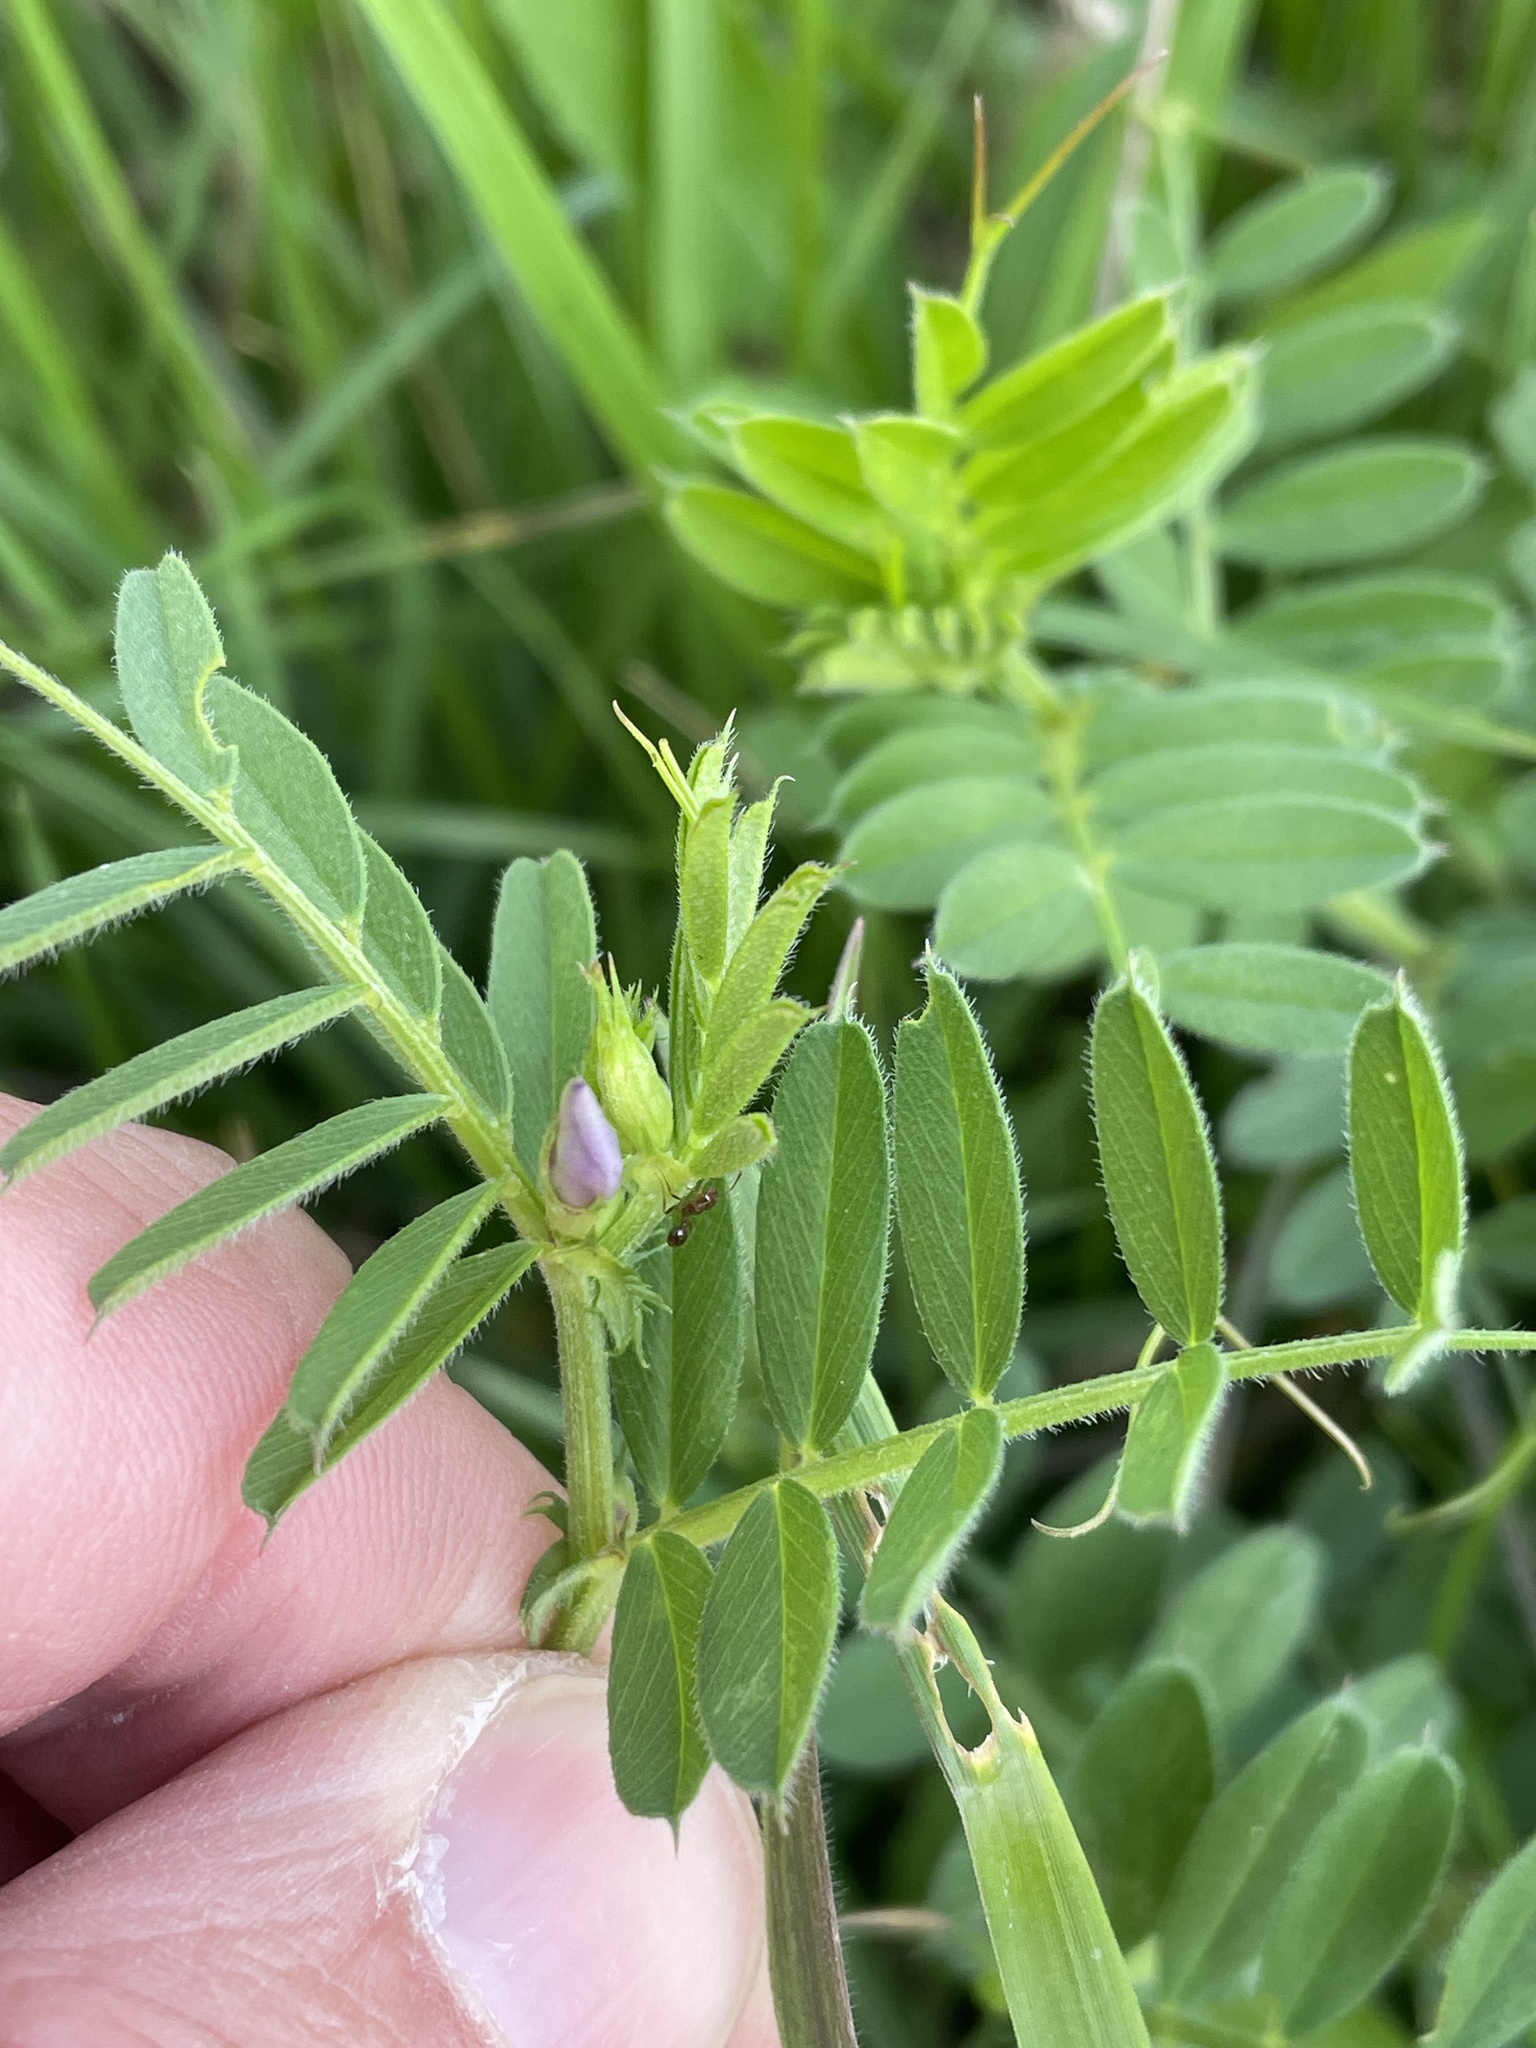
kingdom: Plantae
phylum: Tracheophyta
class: Magnoliopsida
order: Fabales
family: Fabaceae
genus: Vicia
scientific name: Vicia sativa
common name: Garden vetch
